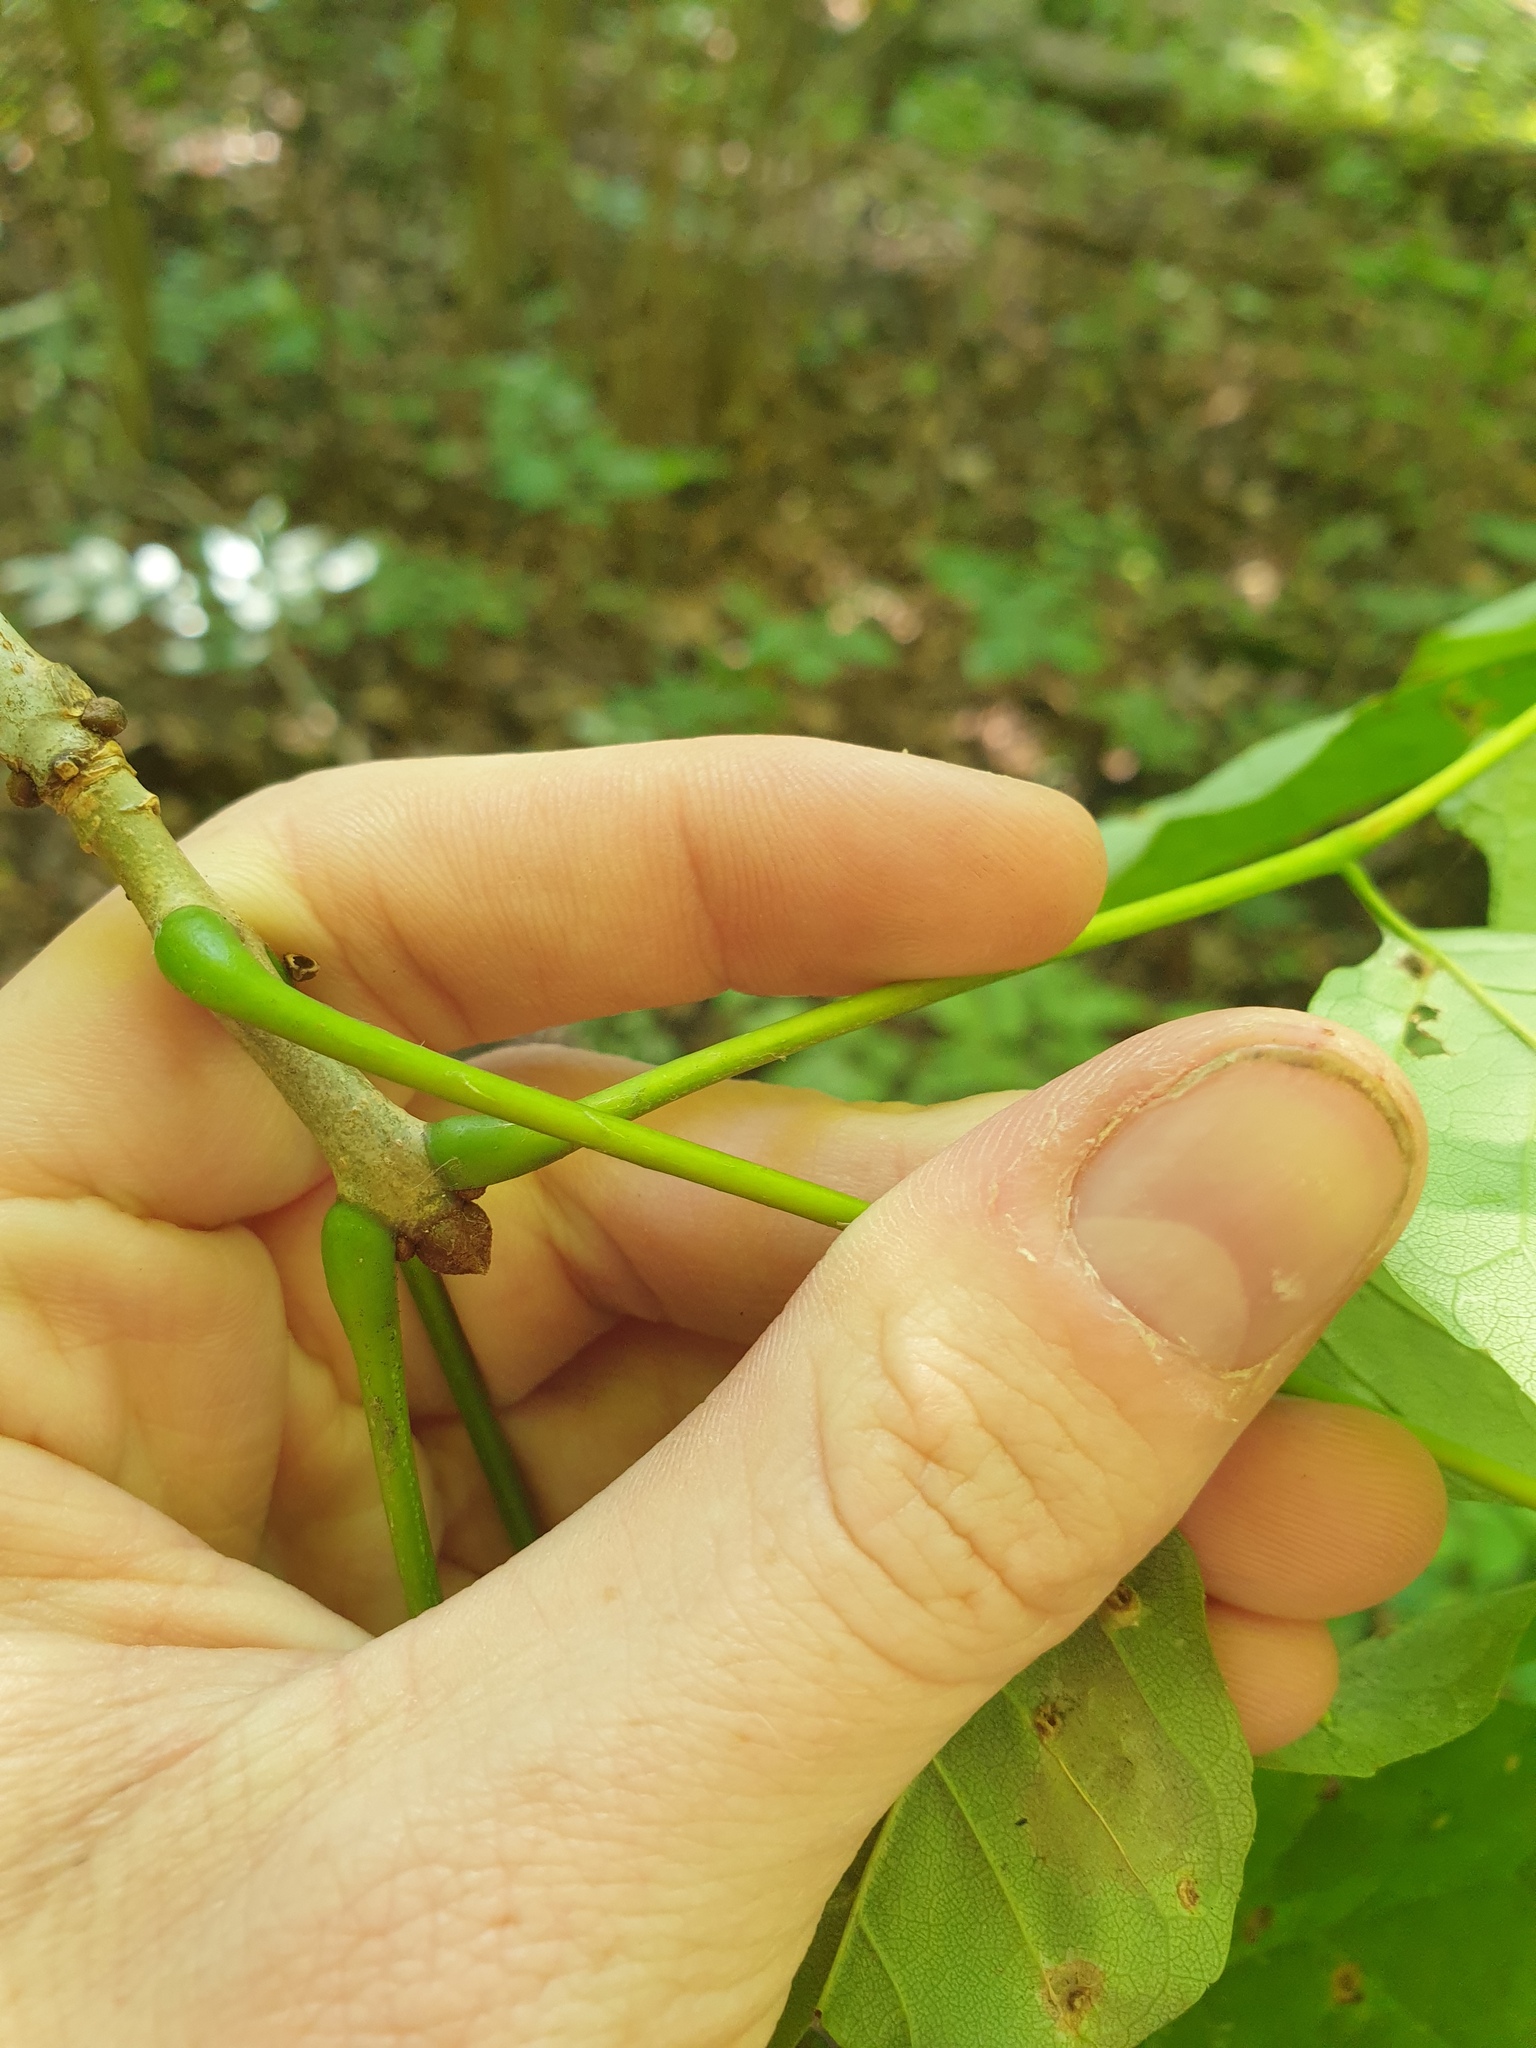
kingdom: Plantae
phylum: Tracheophyta
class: Magnoliopsida
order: Lamiales
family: Oleaceae
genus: Fraxinus
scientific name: Fraxinus americana
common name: White ash
